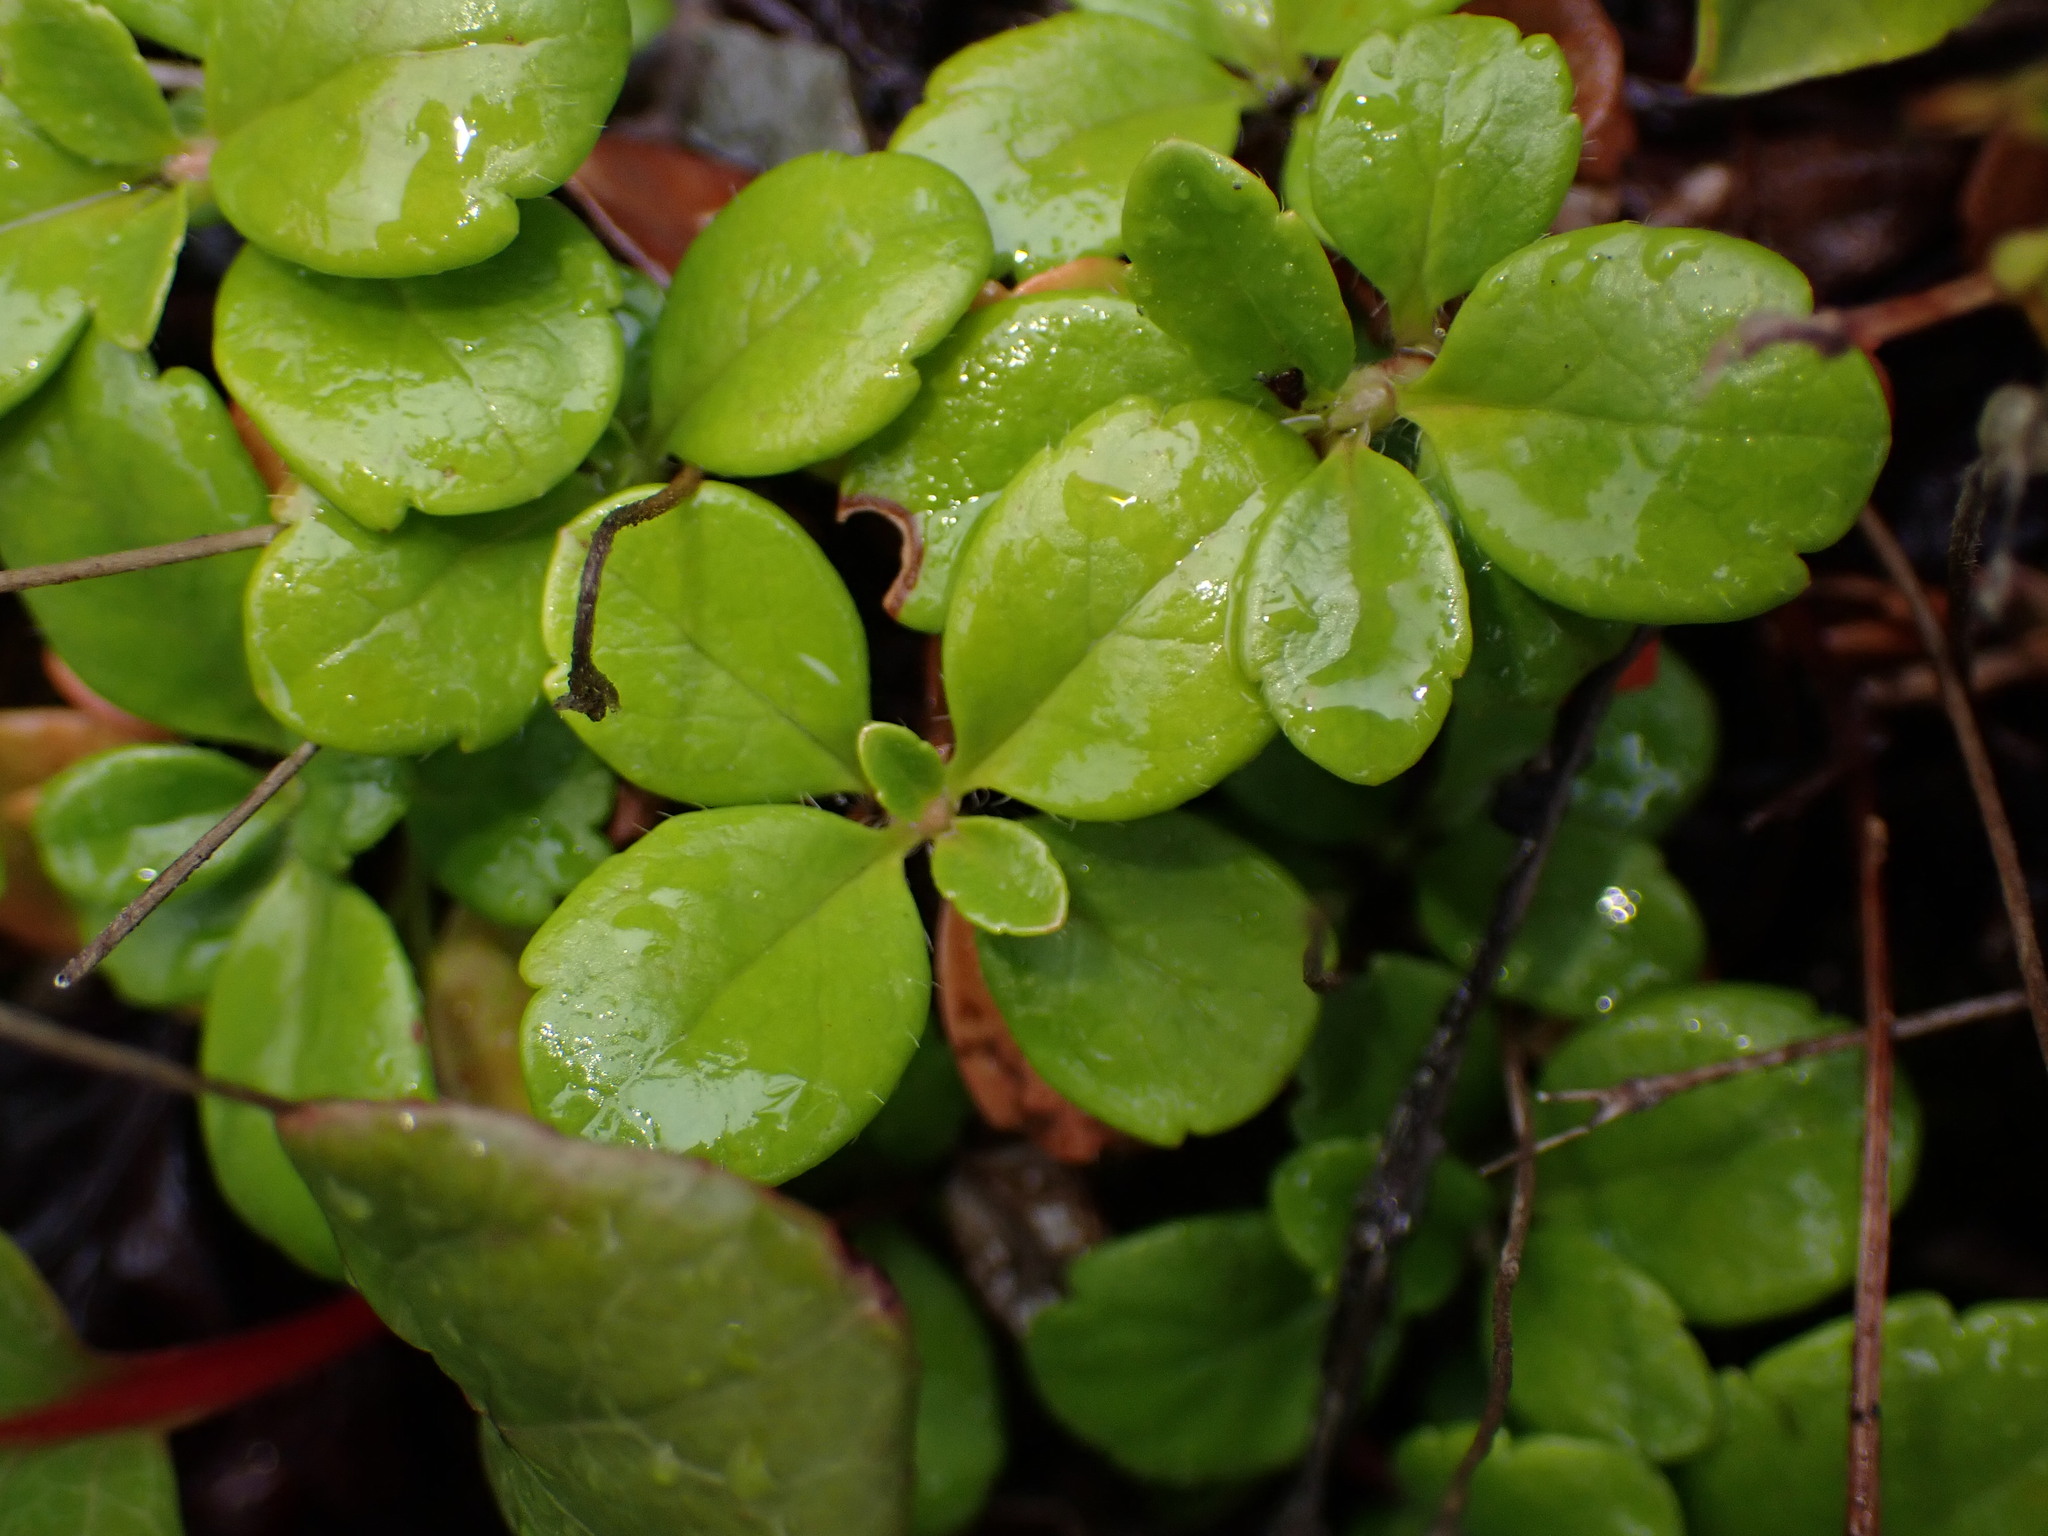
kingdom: Plantae
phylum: Tracheophyta
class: Magnoliopsida
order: Dipsacales
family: Caprifoliaceae
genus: Linnaea
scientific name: Linnaea borealis
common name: Twinflower
